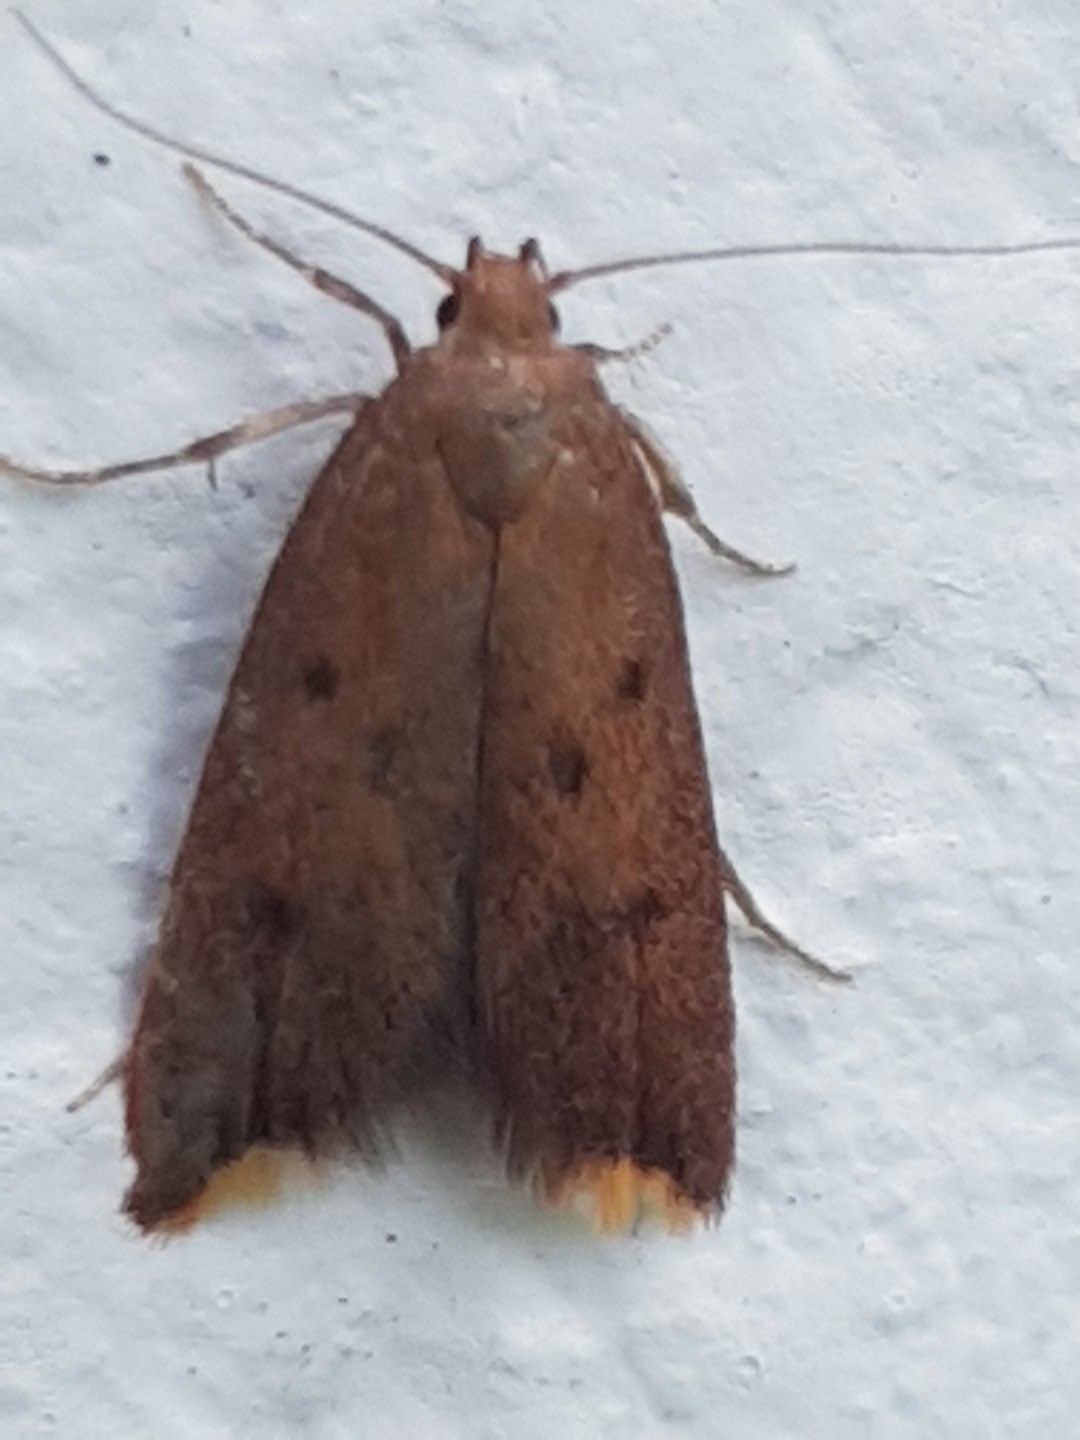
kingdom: Animalia
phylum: Arthropoda
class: Insecta
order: Lepidoptera
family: Oecophoridae
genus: Tachystola
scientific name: Tachystola acroxantha
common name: Ruddy streak
